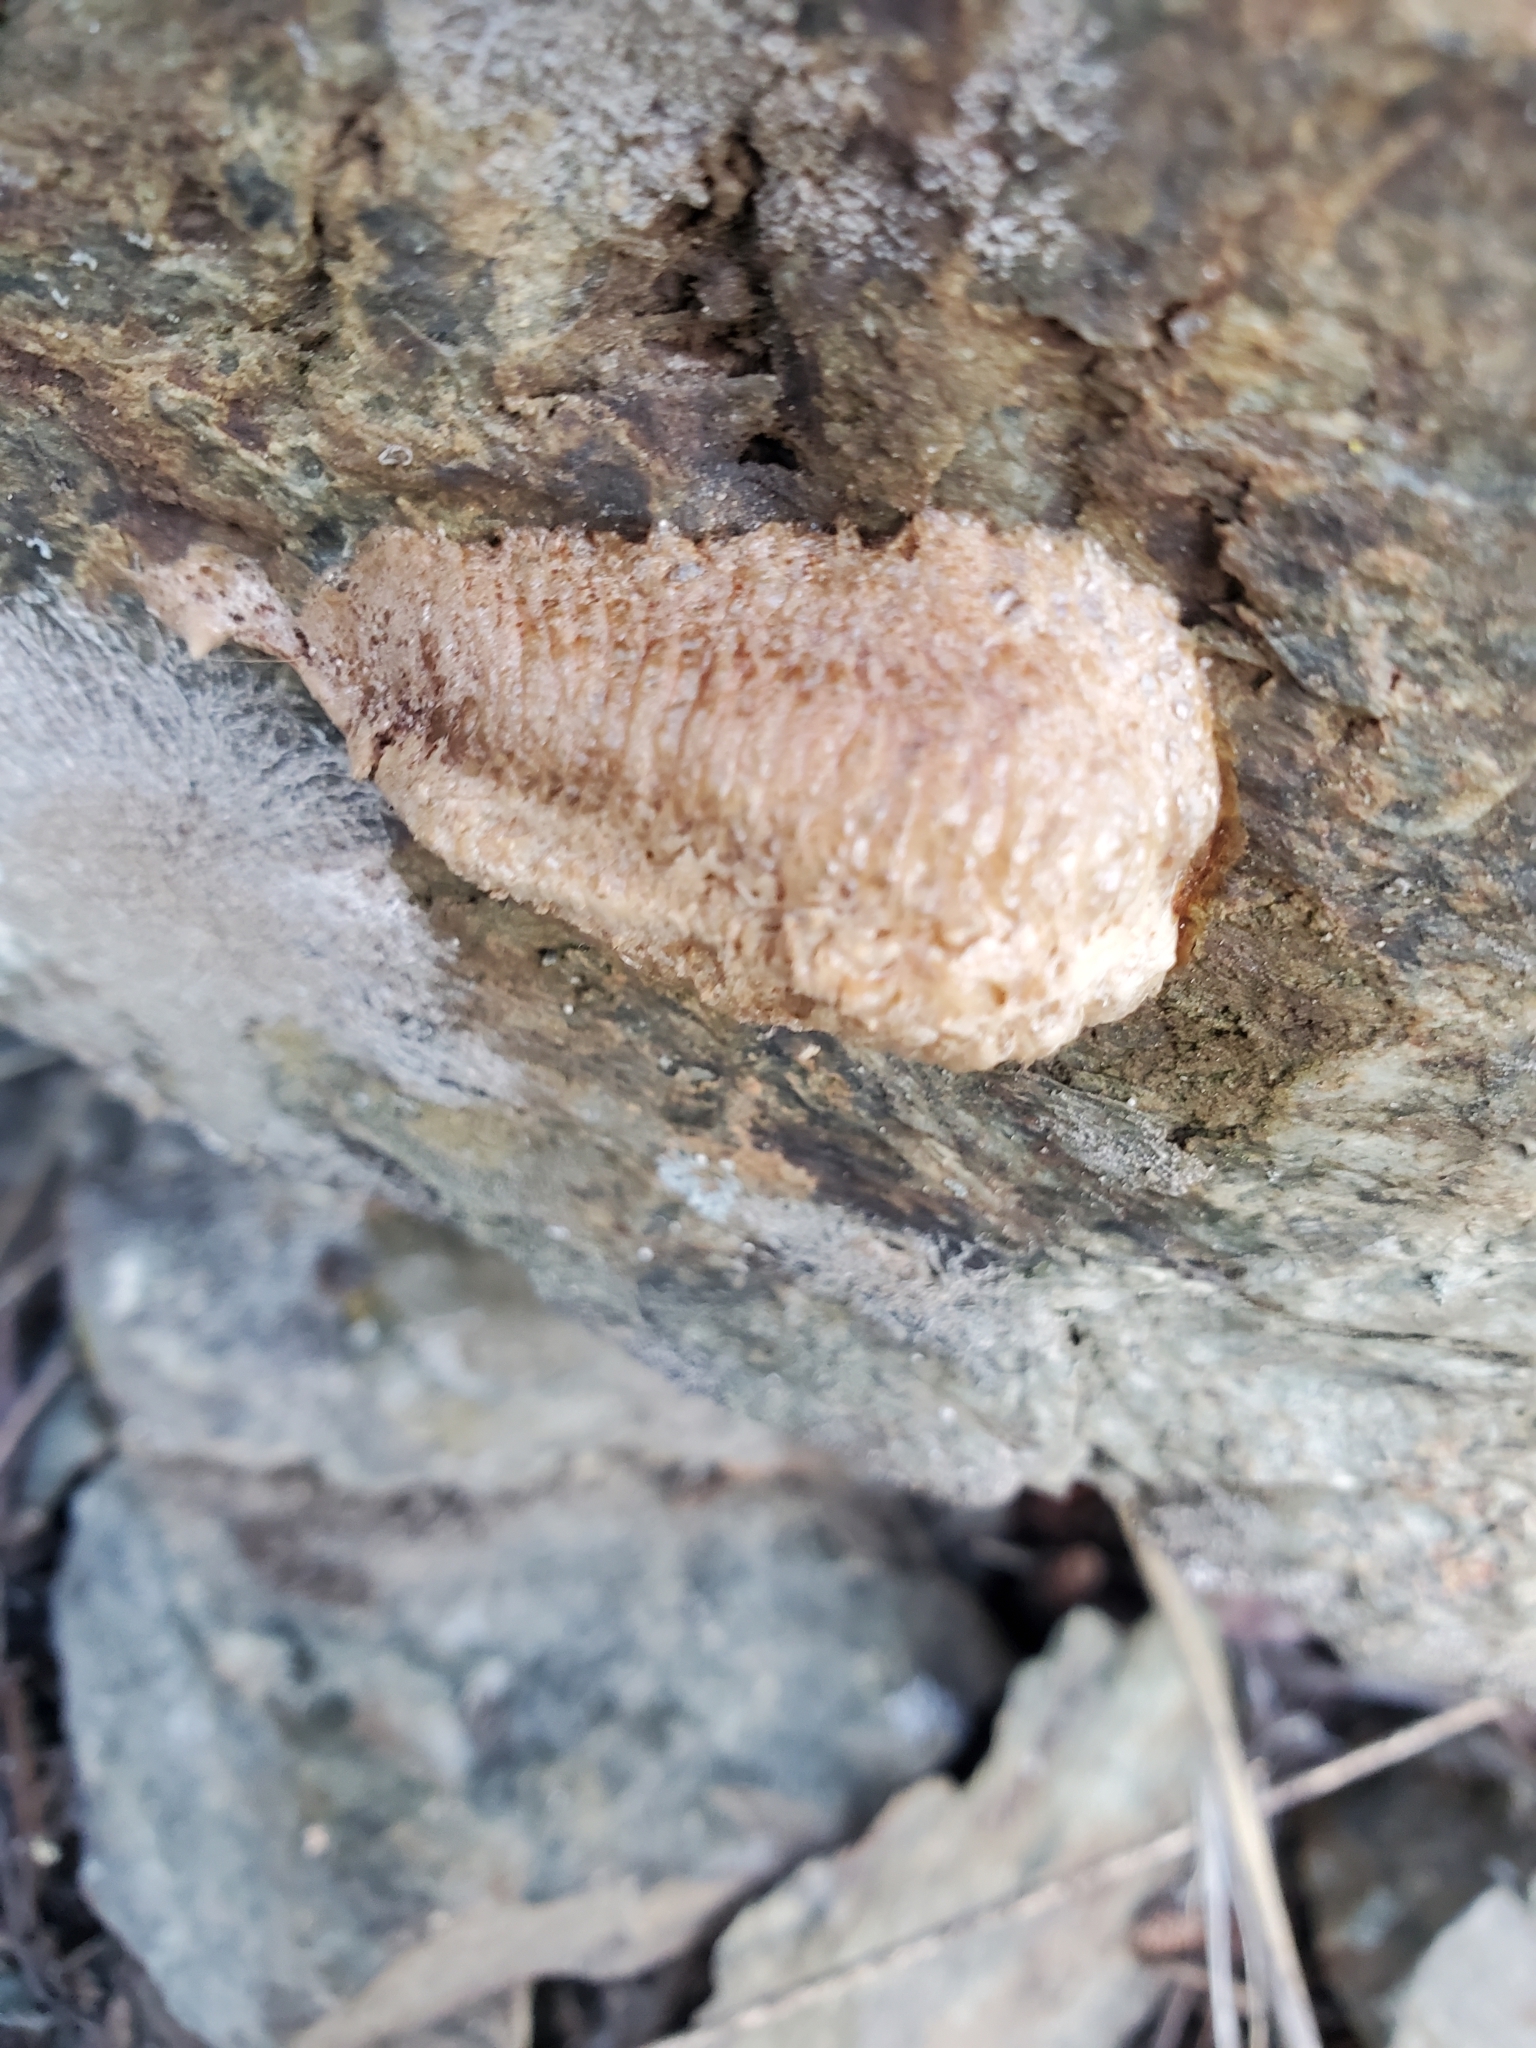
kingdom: Animalia
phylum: Arthropoda
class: Insecta
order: Mantodea
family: Mantidae
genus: Mantis
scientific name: Mantis religiosa
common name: Praying mantis
